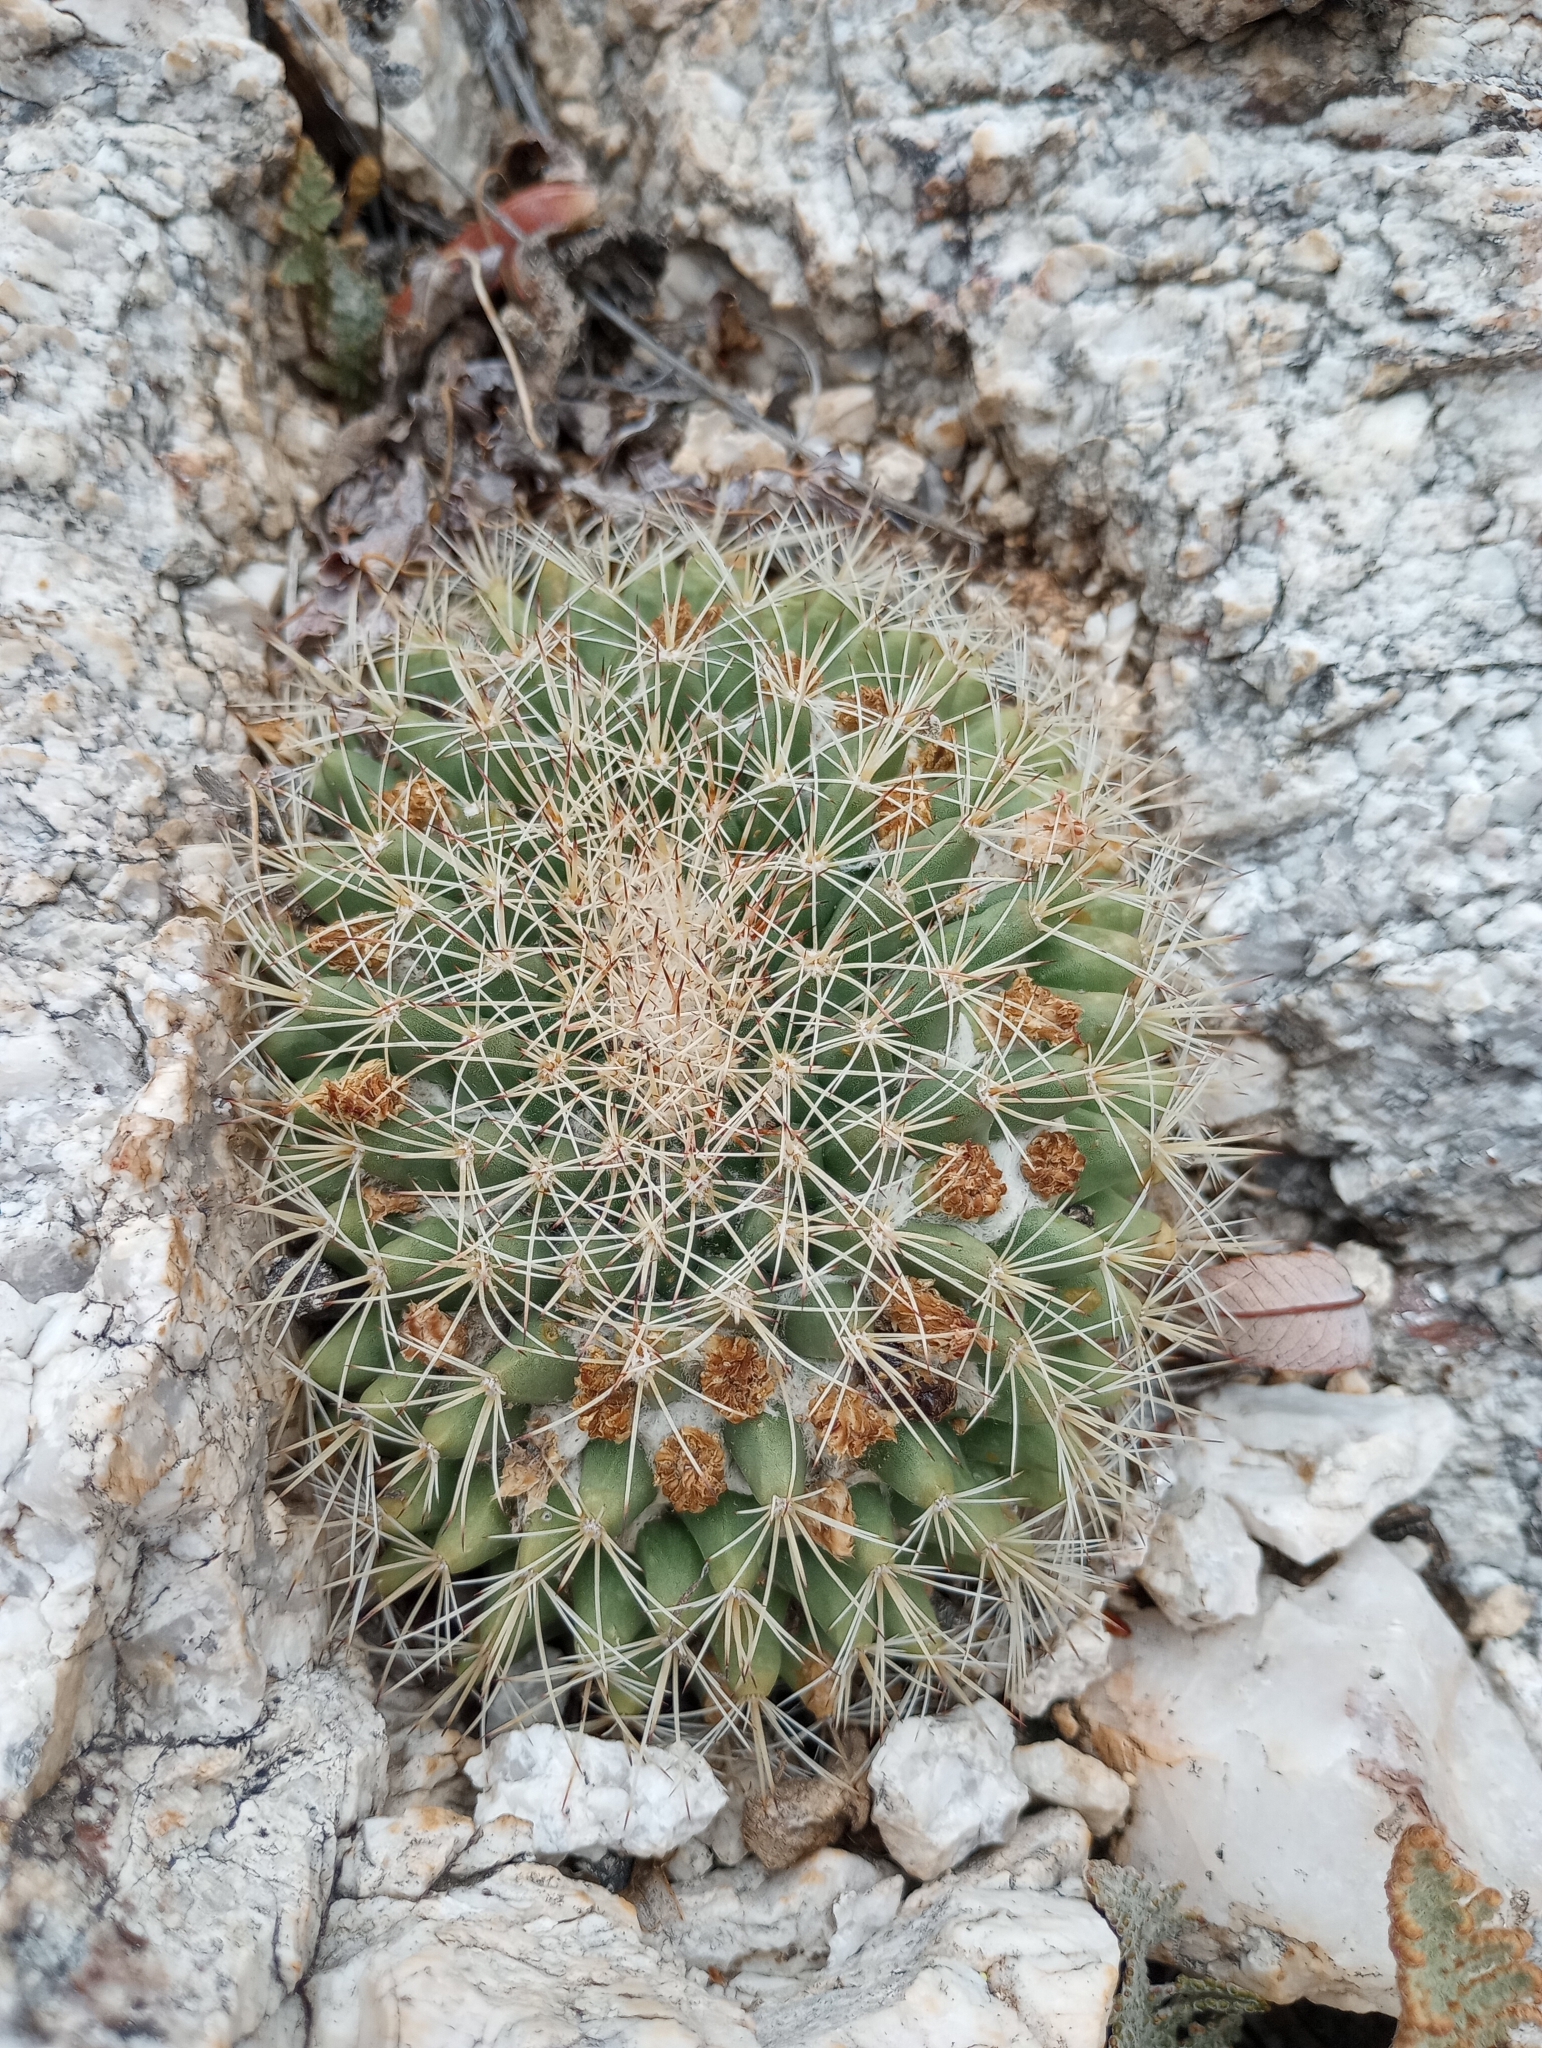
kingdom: Plantae
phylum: Tracheophyta
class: Magnoliopsida
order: Caryophyllales
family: Cactaceae
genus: Mammillaria
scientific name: Mammillaria heyderi
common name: Little nipple cactus
